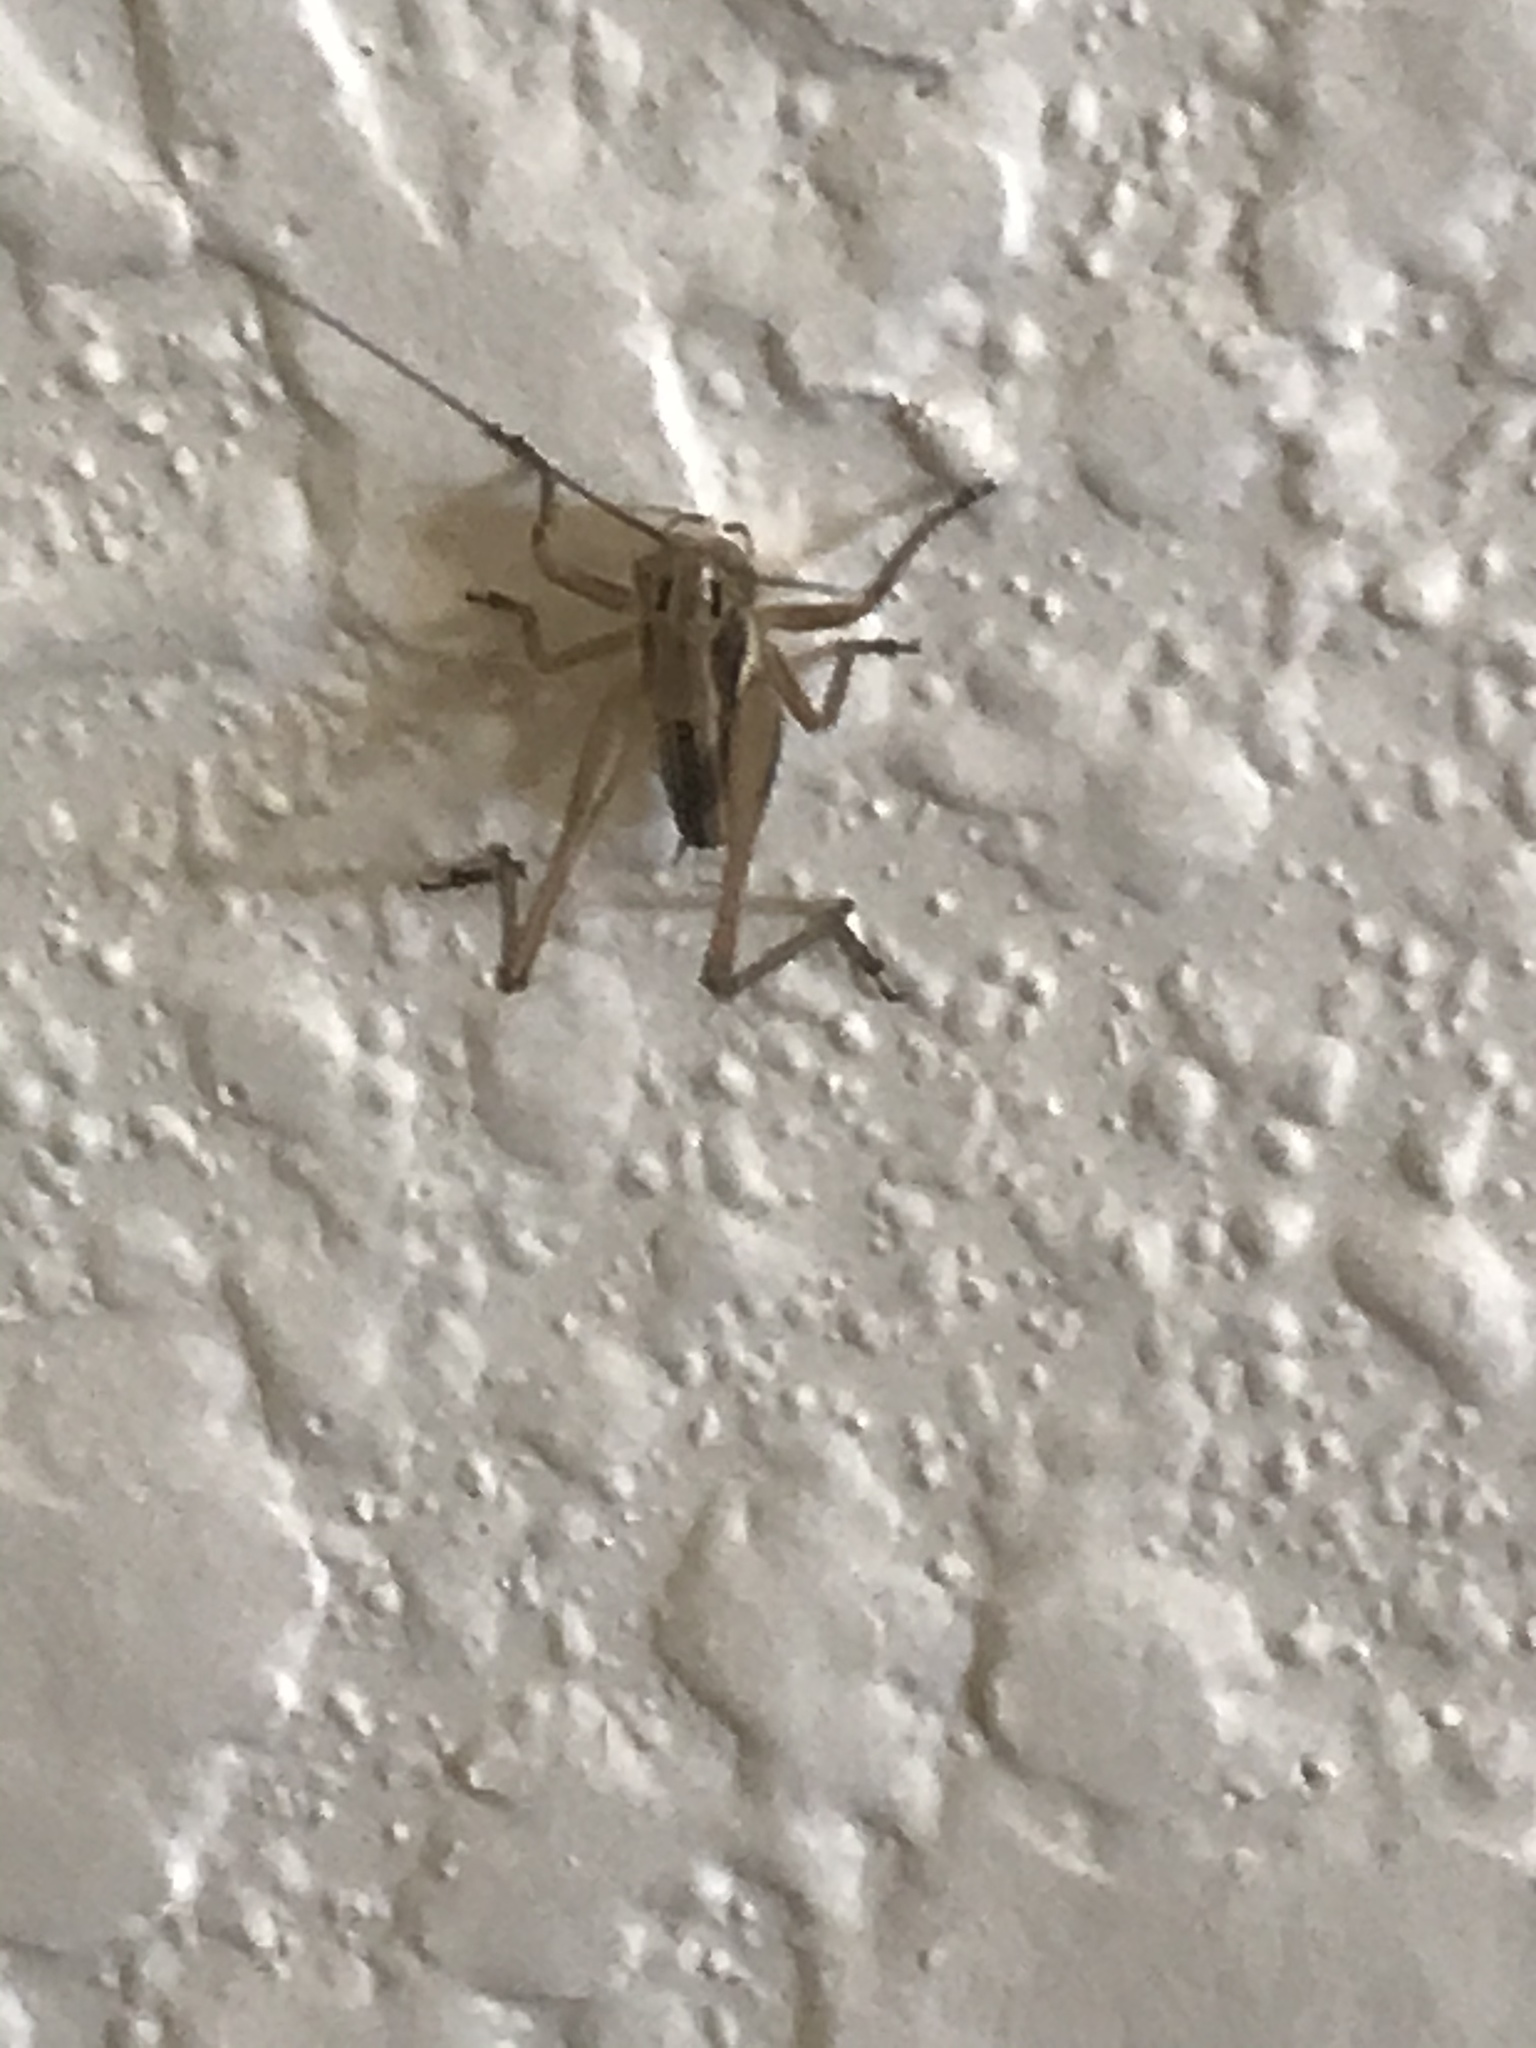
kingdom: Animalia
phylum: Arthropoda
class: Insecta
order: Orthoptera
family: Tettigoniidae
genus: Tessellana
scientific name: Tessellana tessellata
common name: Grasshopper
